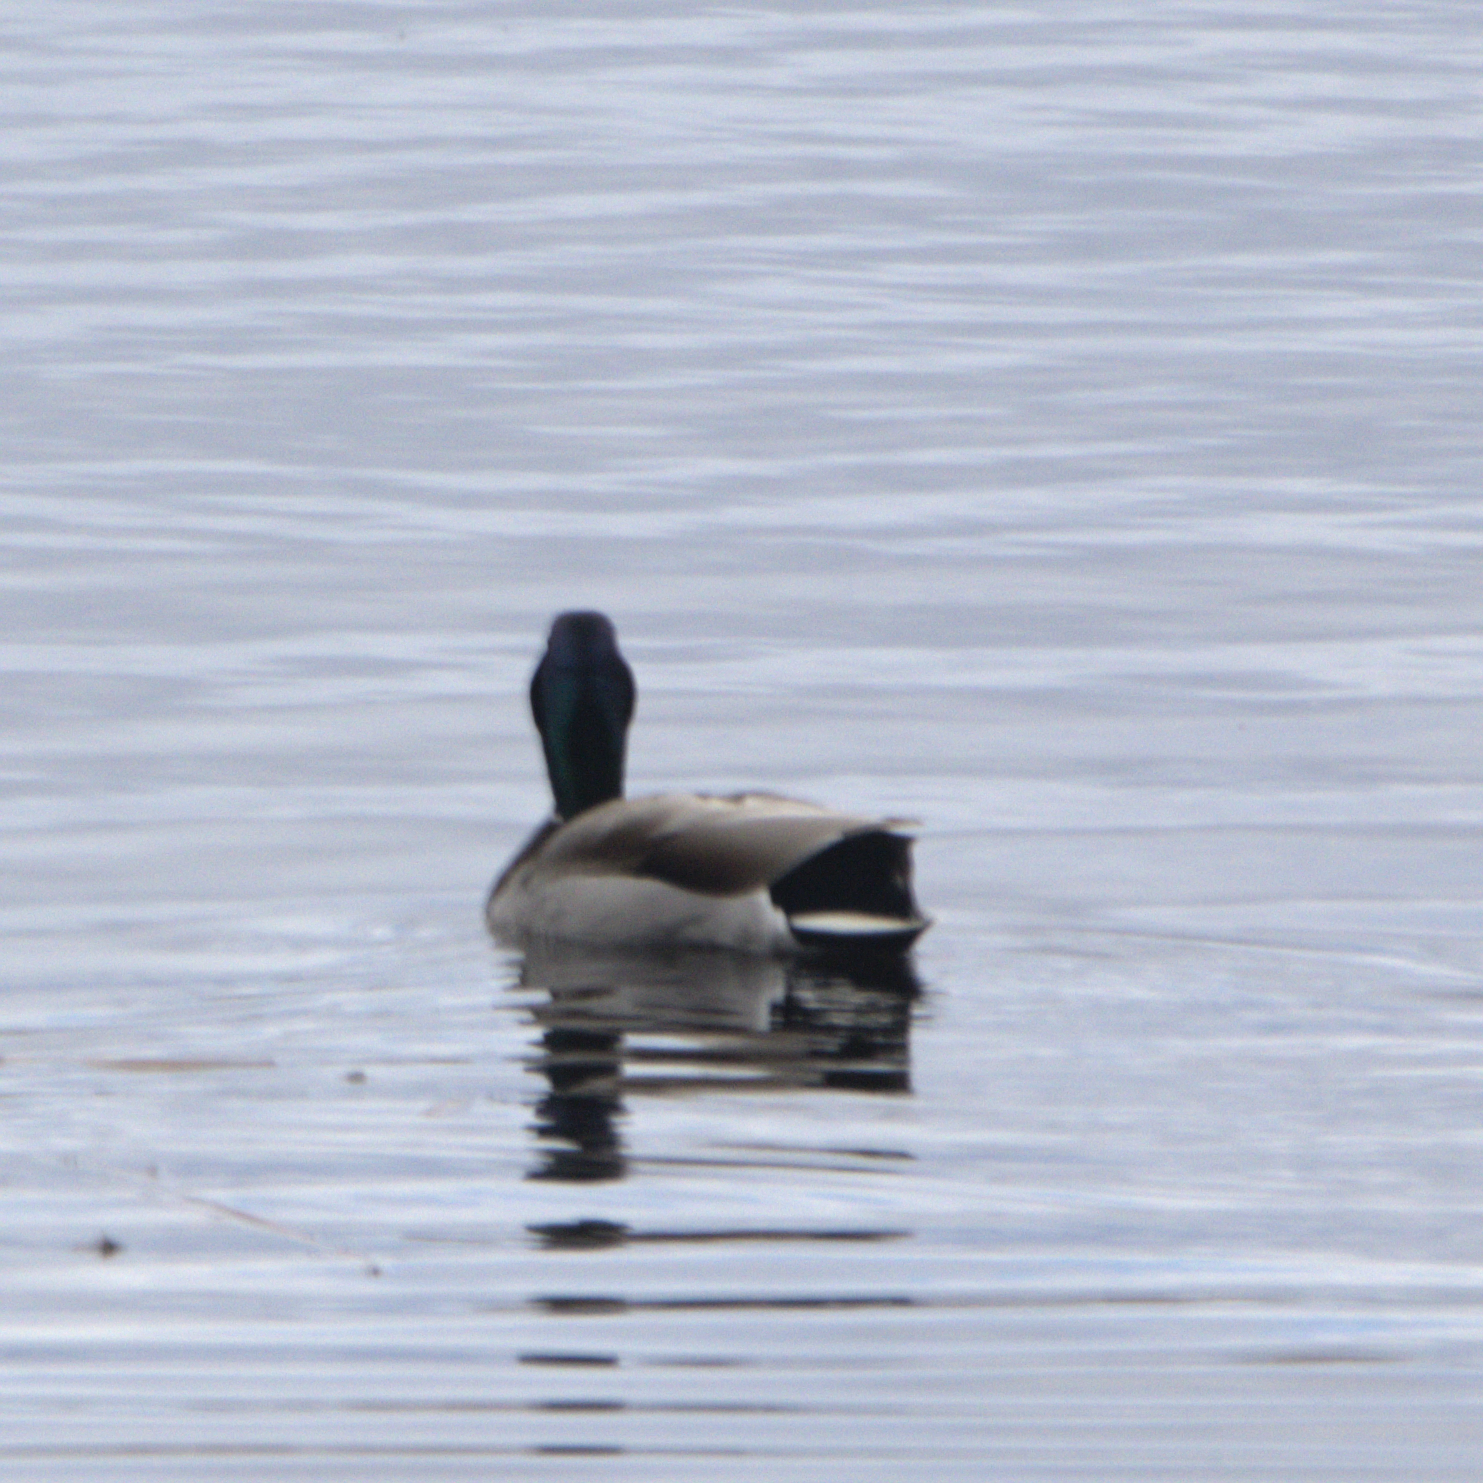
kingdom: Animalia
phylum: Chordata
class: Aves
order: Anseriformes
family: Anatidae
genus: Anas
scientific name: Anas platyrhynchos
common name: Mallard
